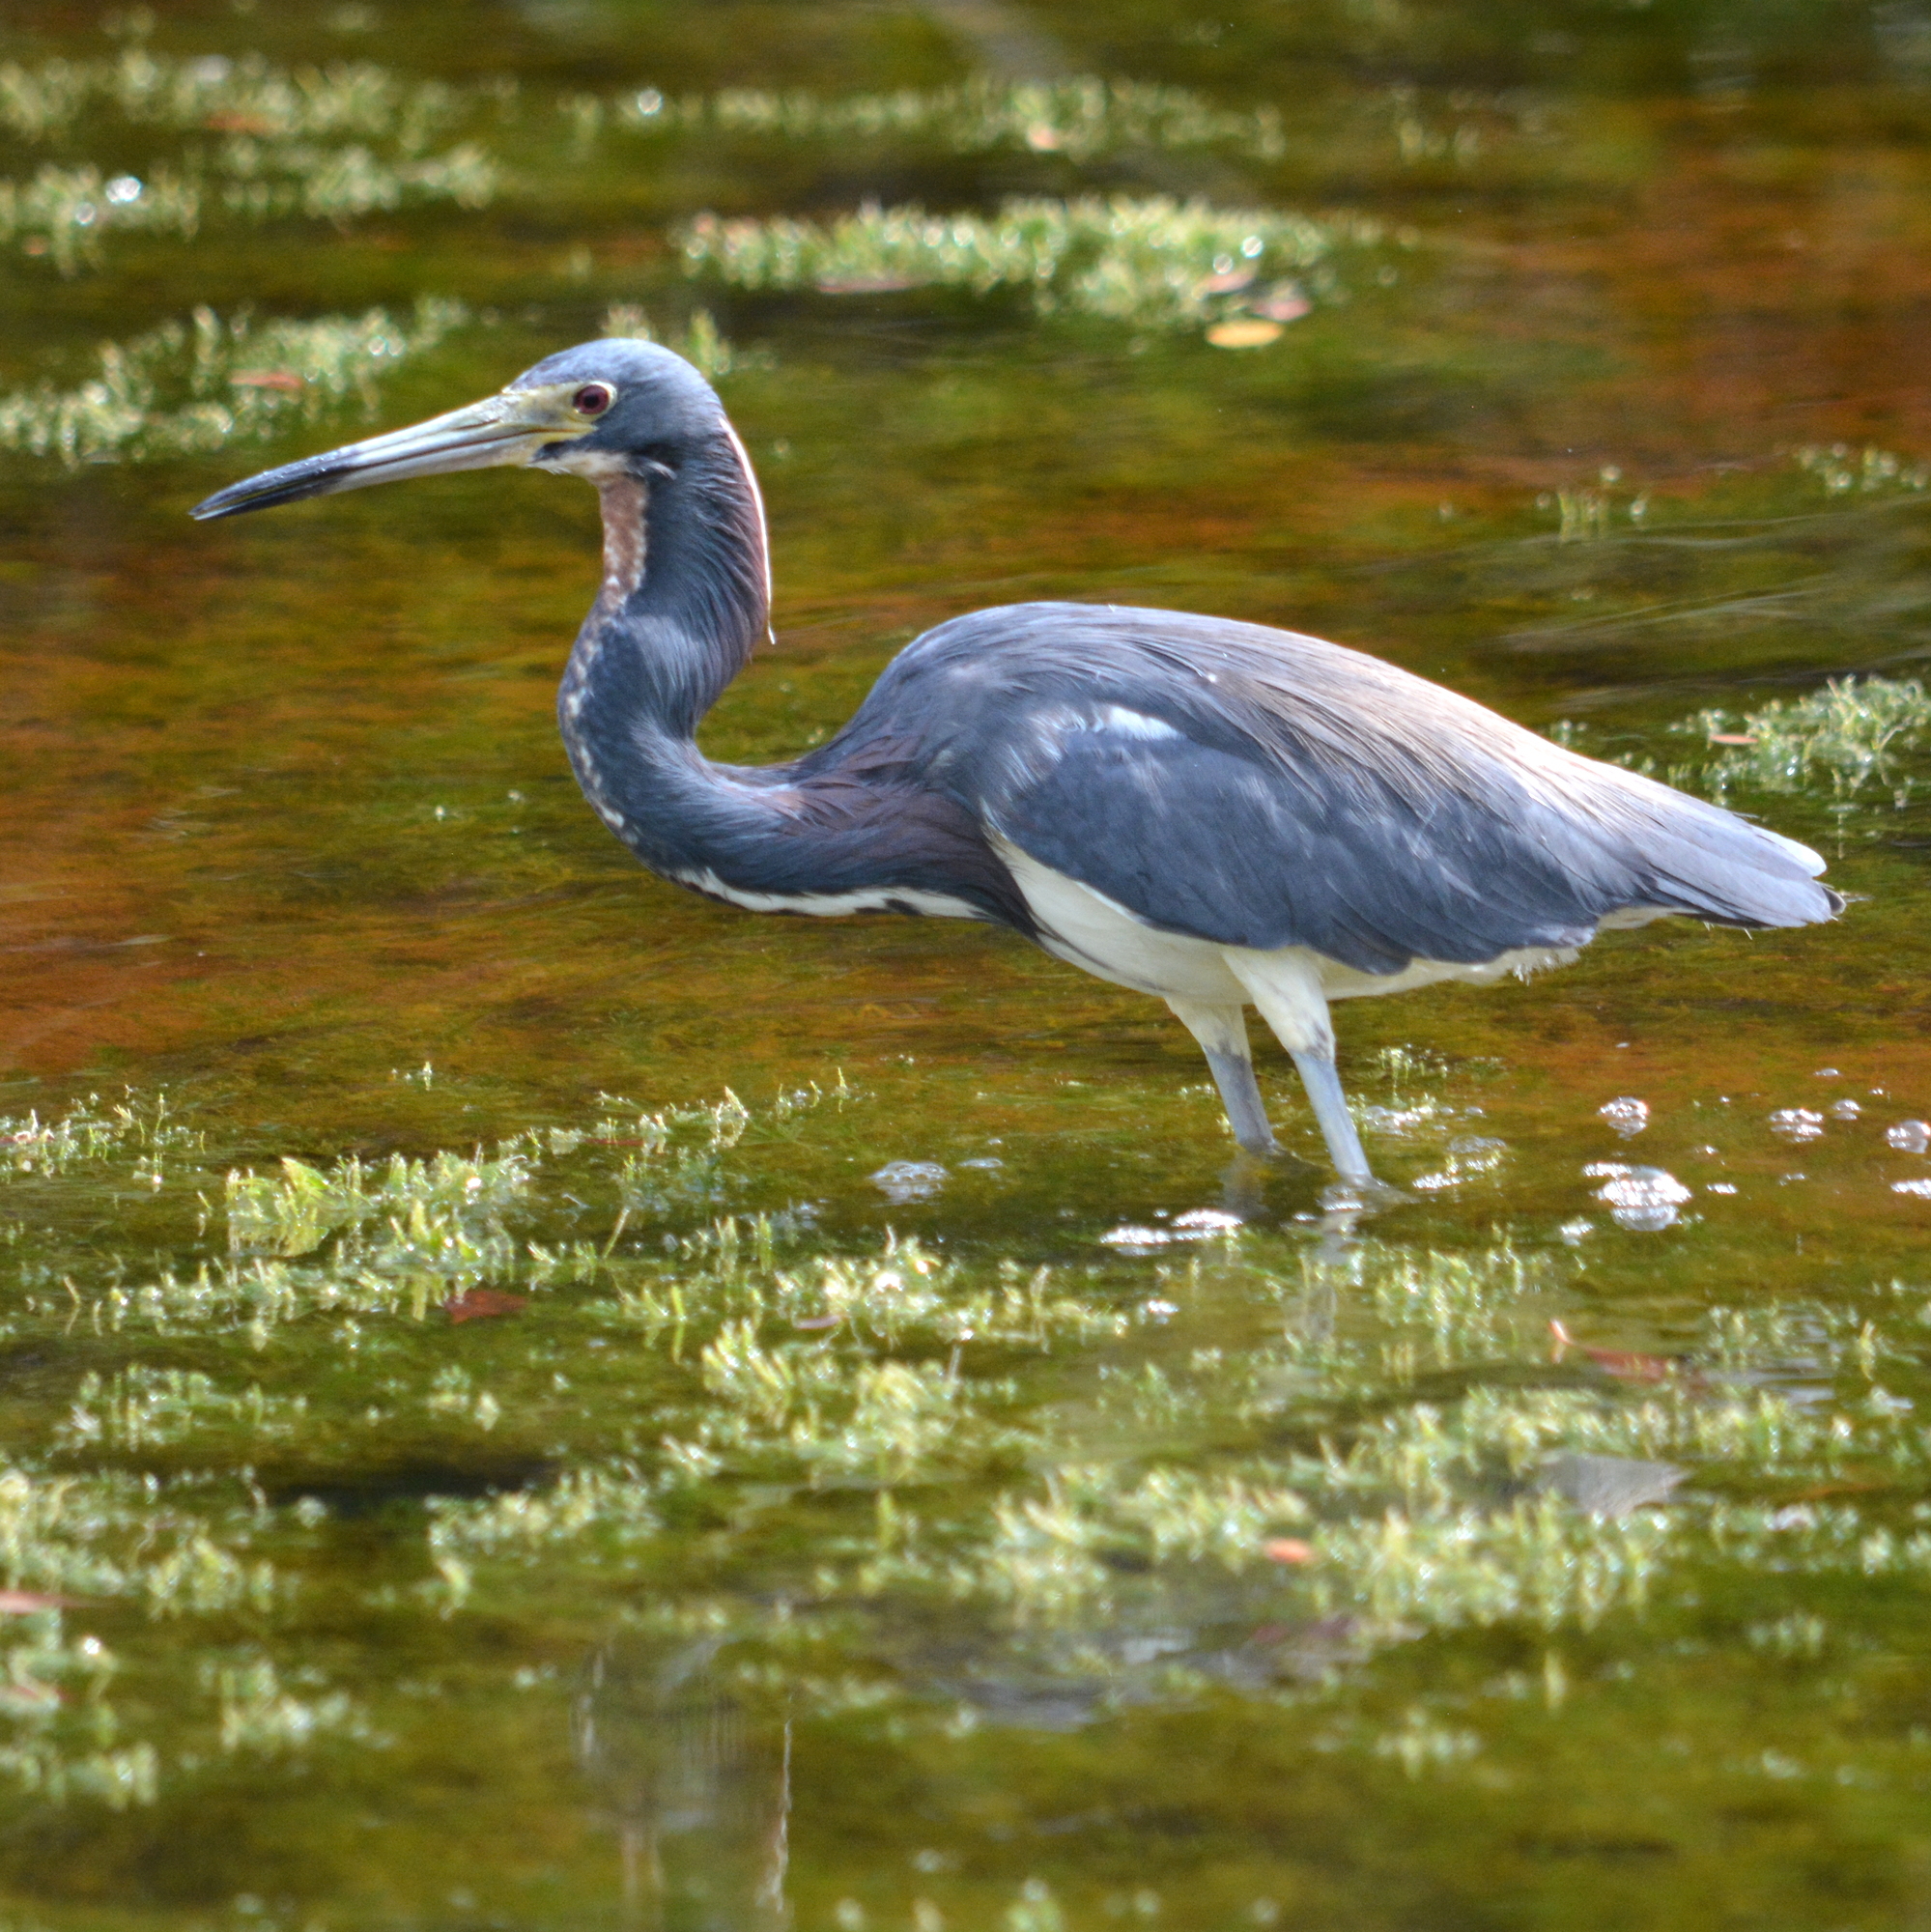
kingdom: Animalia
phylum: Chordata
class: Aves
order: Pelecaniformes
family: Ardeidae
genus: Egretta
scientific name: Egretta tricolor
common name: Tricolored heron
